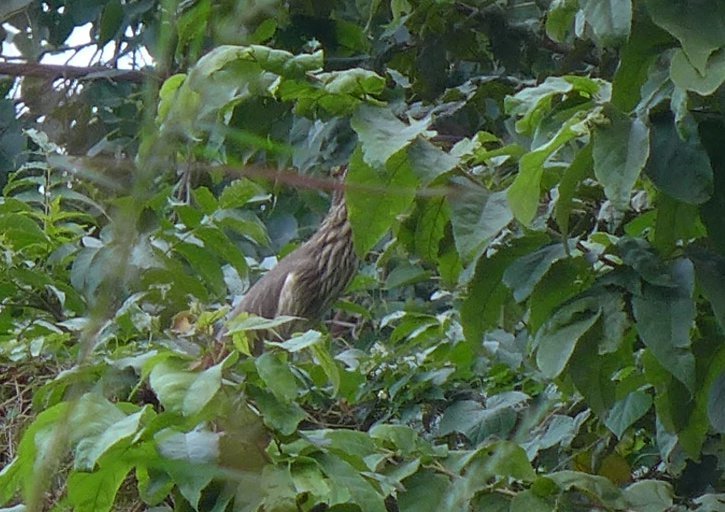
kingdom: Animalia
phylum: Chordata
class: Aves
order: Pelecaniformes
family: Ardeidae
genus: Ardeola
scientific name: Ardeola grayii
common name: Indian pond heron
